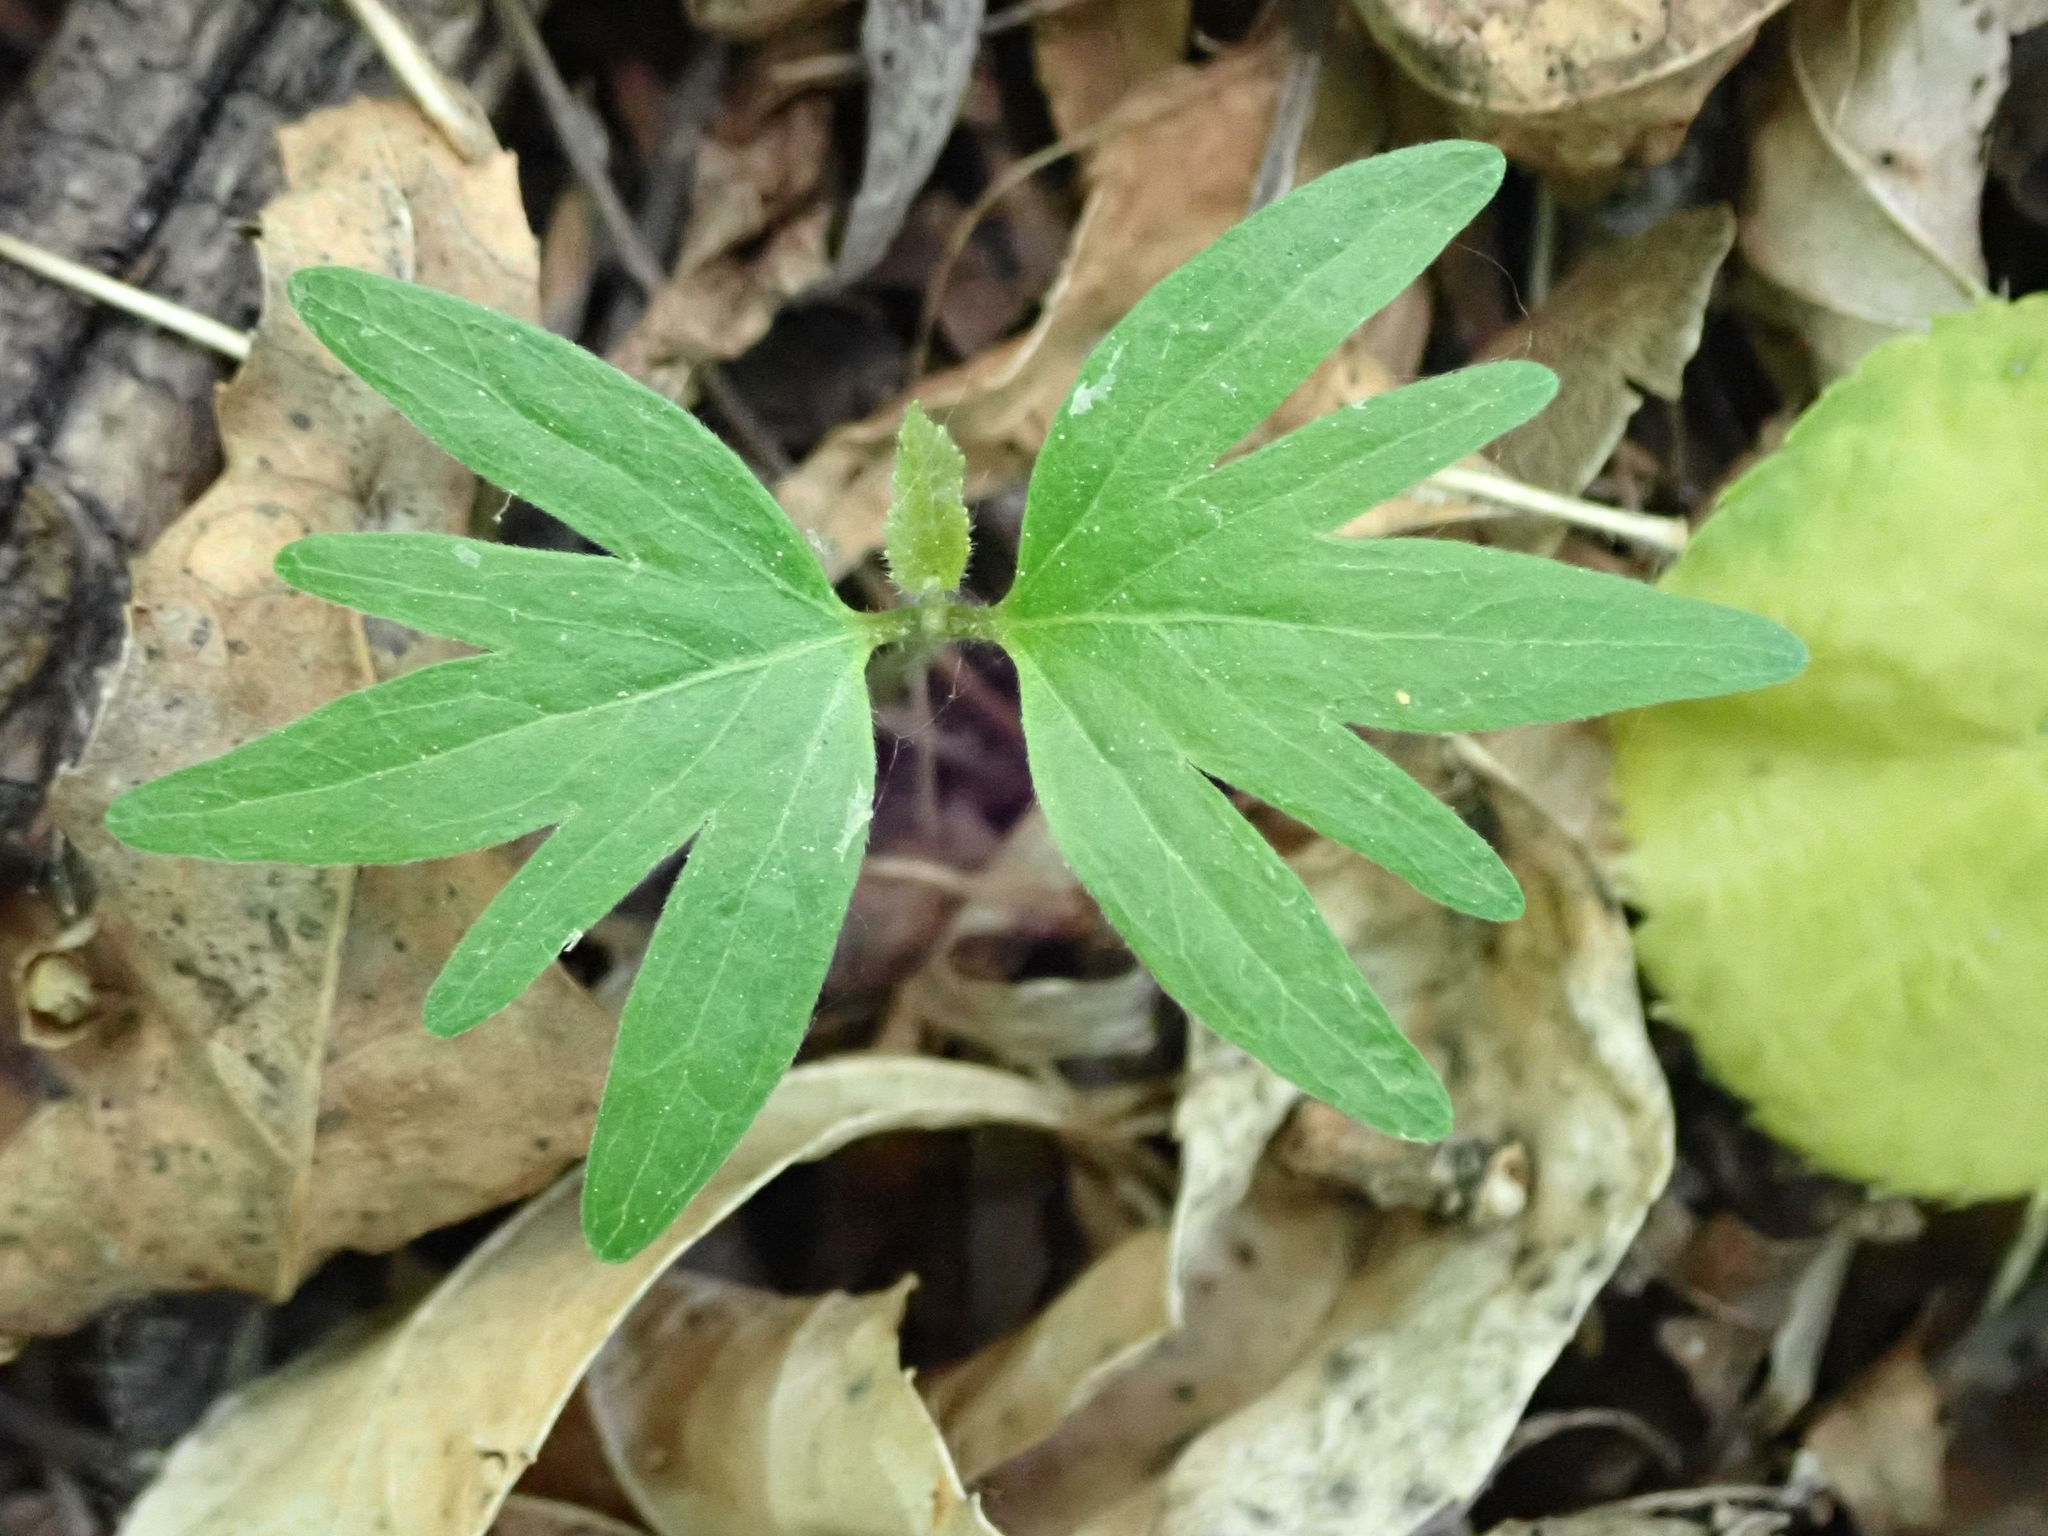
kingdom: Plantae
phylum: Tracheophyta
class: Magnoliopsida
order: Malvales
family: Malvaceae
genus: Tilia
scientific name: Tilia americana
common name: Basswood
